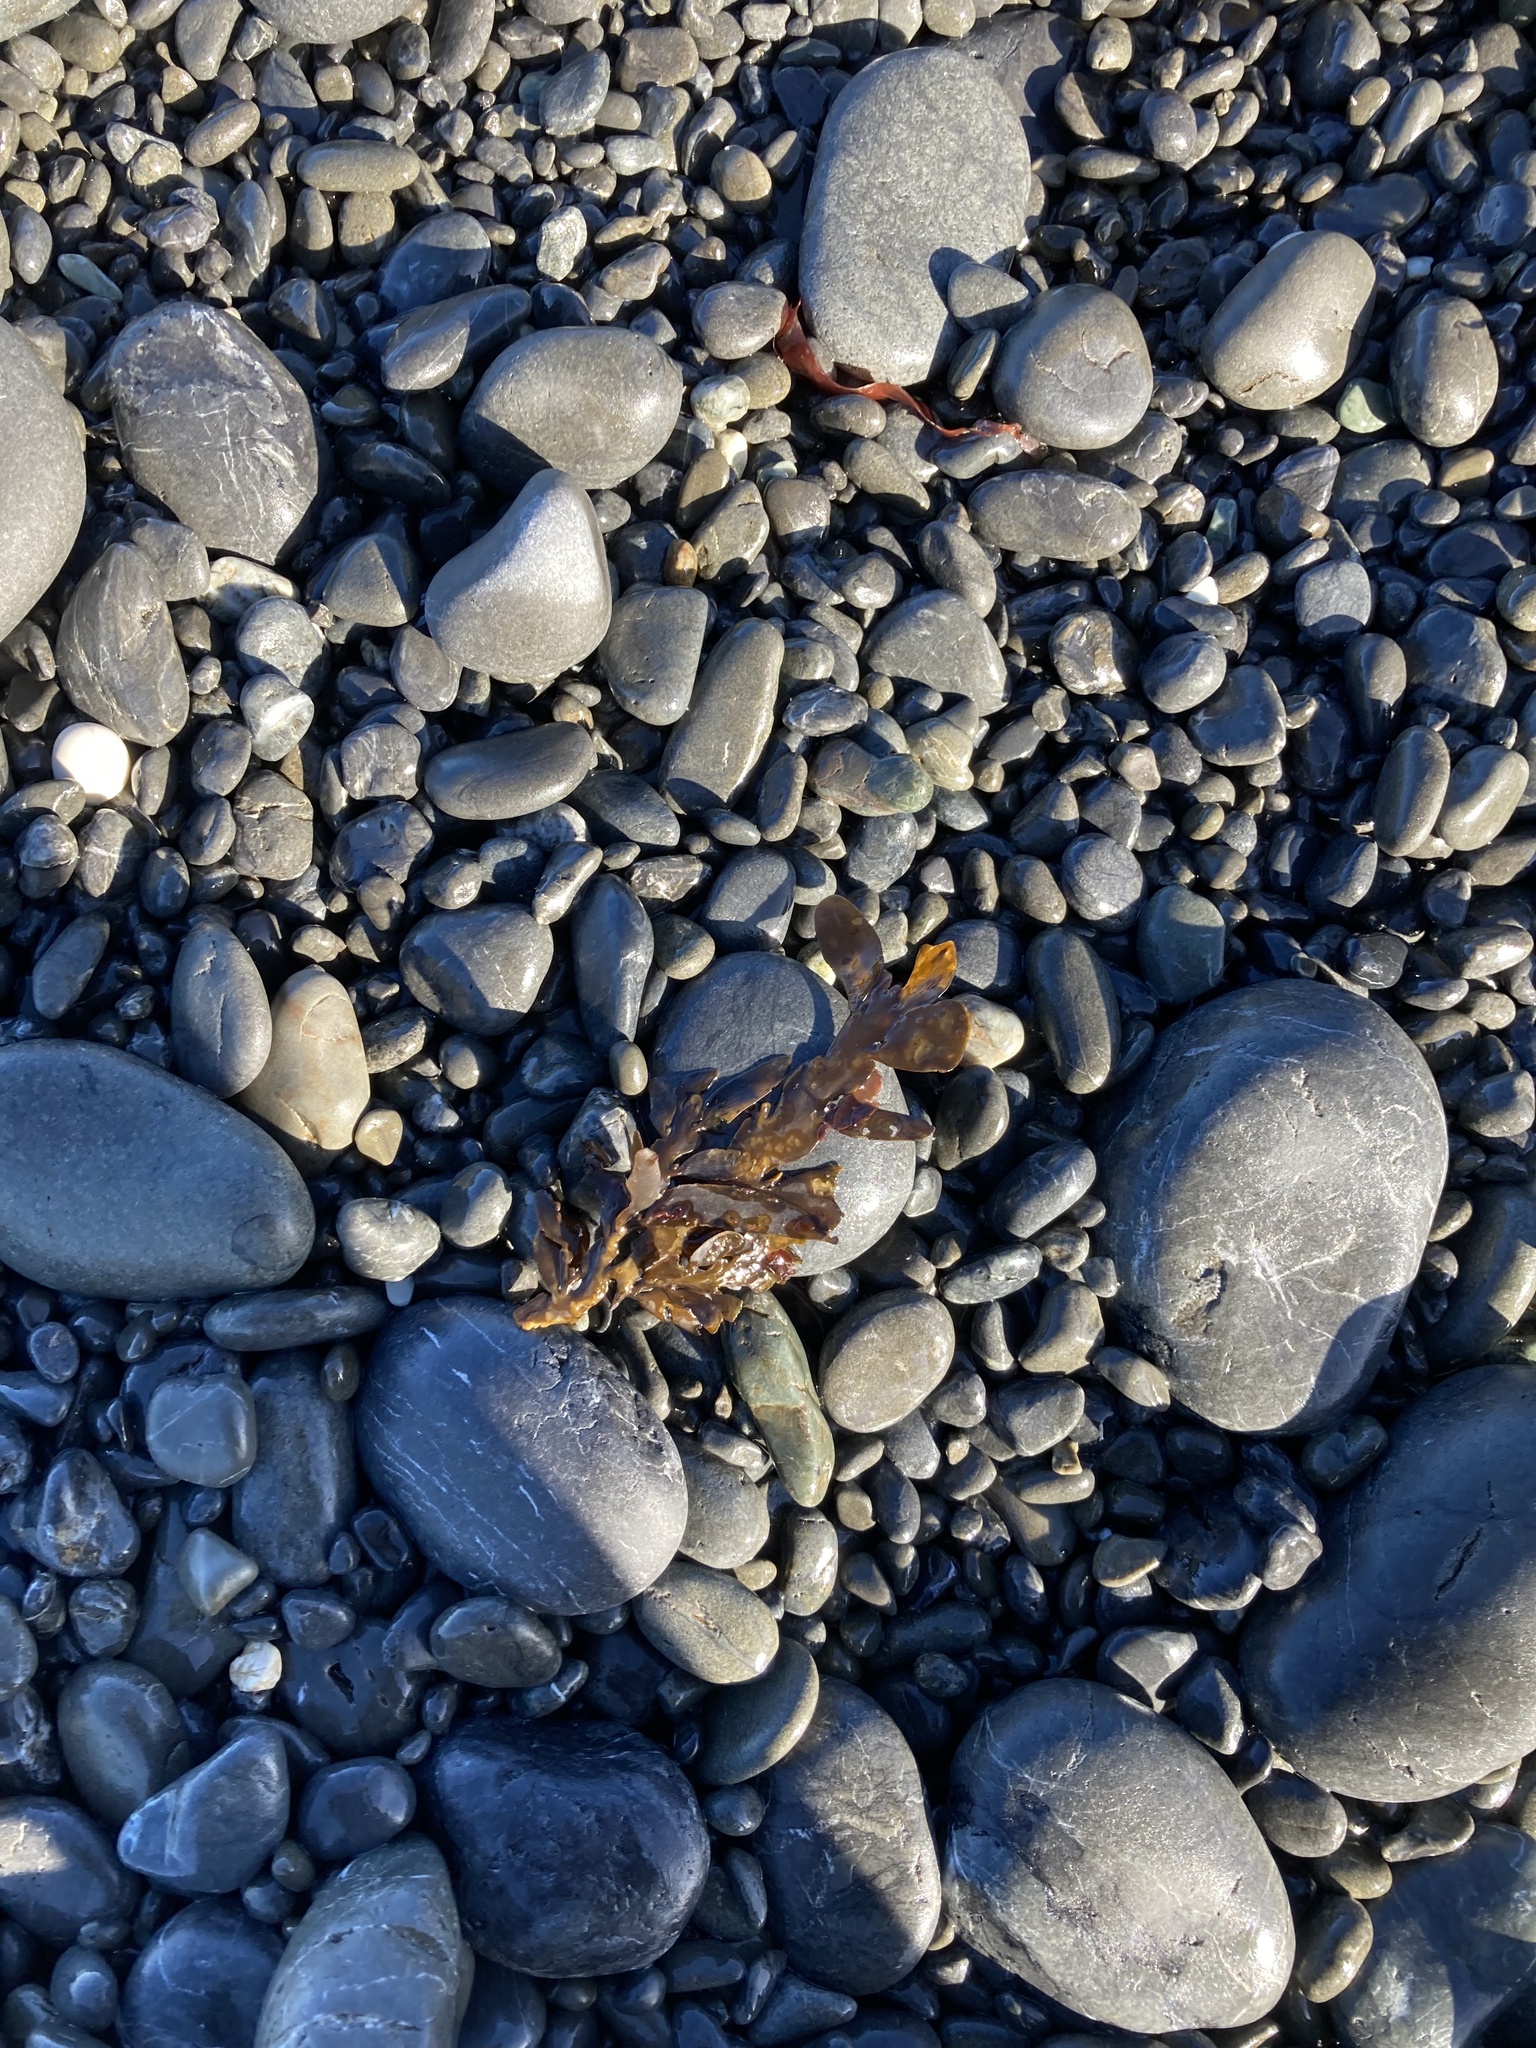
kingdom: Chromista
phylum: Ochrophyta
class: Phaeophyceae
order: Fucales
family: Sargassaceae
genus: Carpophyllum
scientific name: Carpophyllum maschalocarpum
